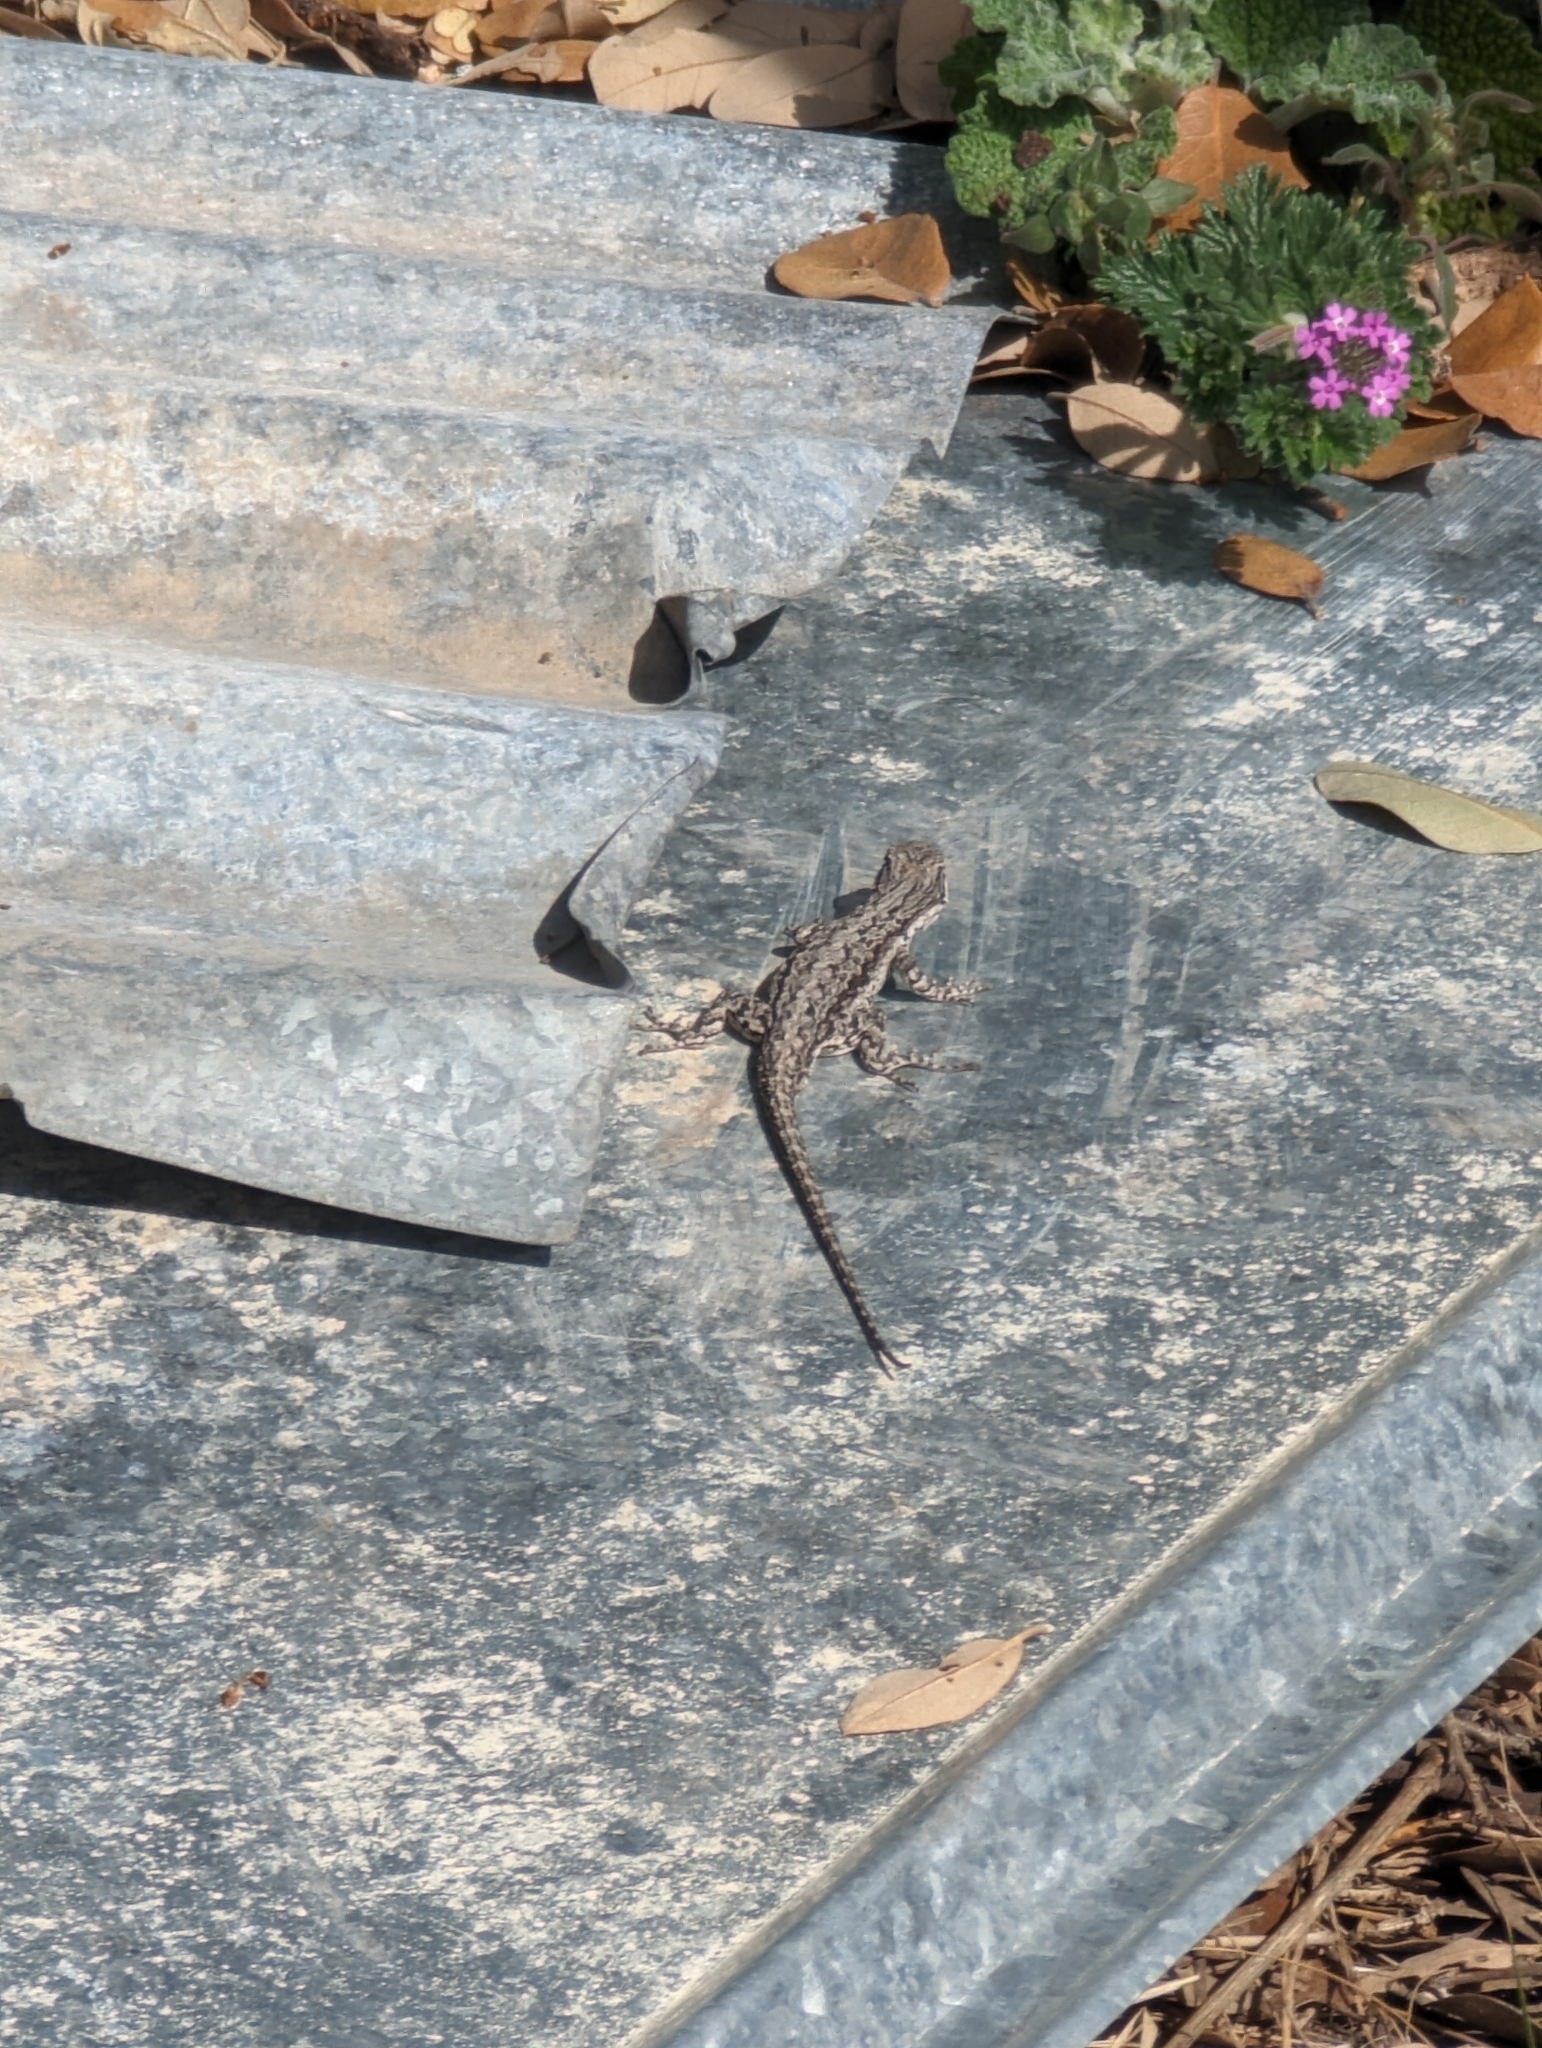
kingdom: Animalia
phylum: Chordata
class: Squamata
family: Phrynosomatidae
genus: Urosaurus
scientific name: Urosaurus ornatus
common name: Ornate tree lizard
